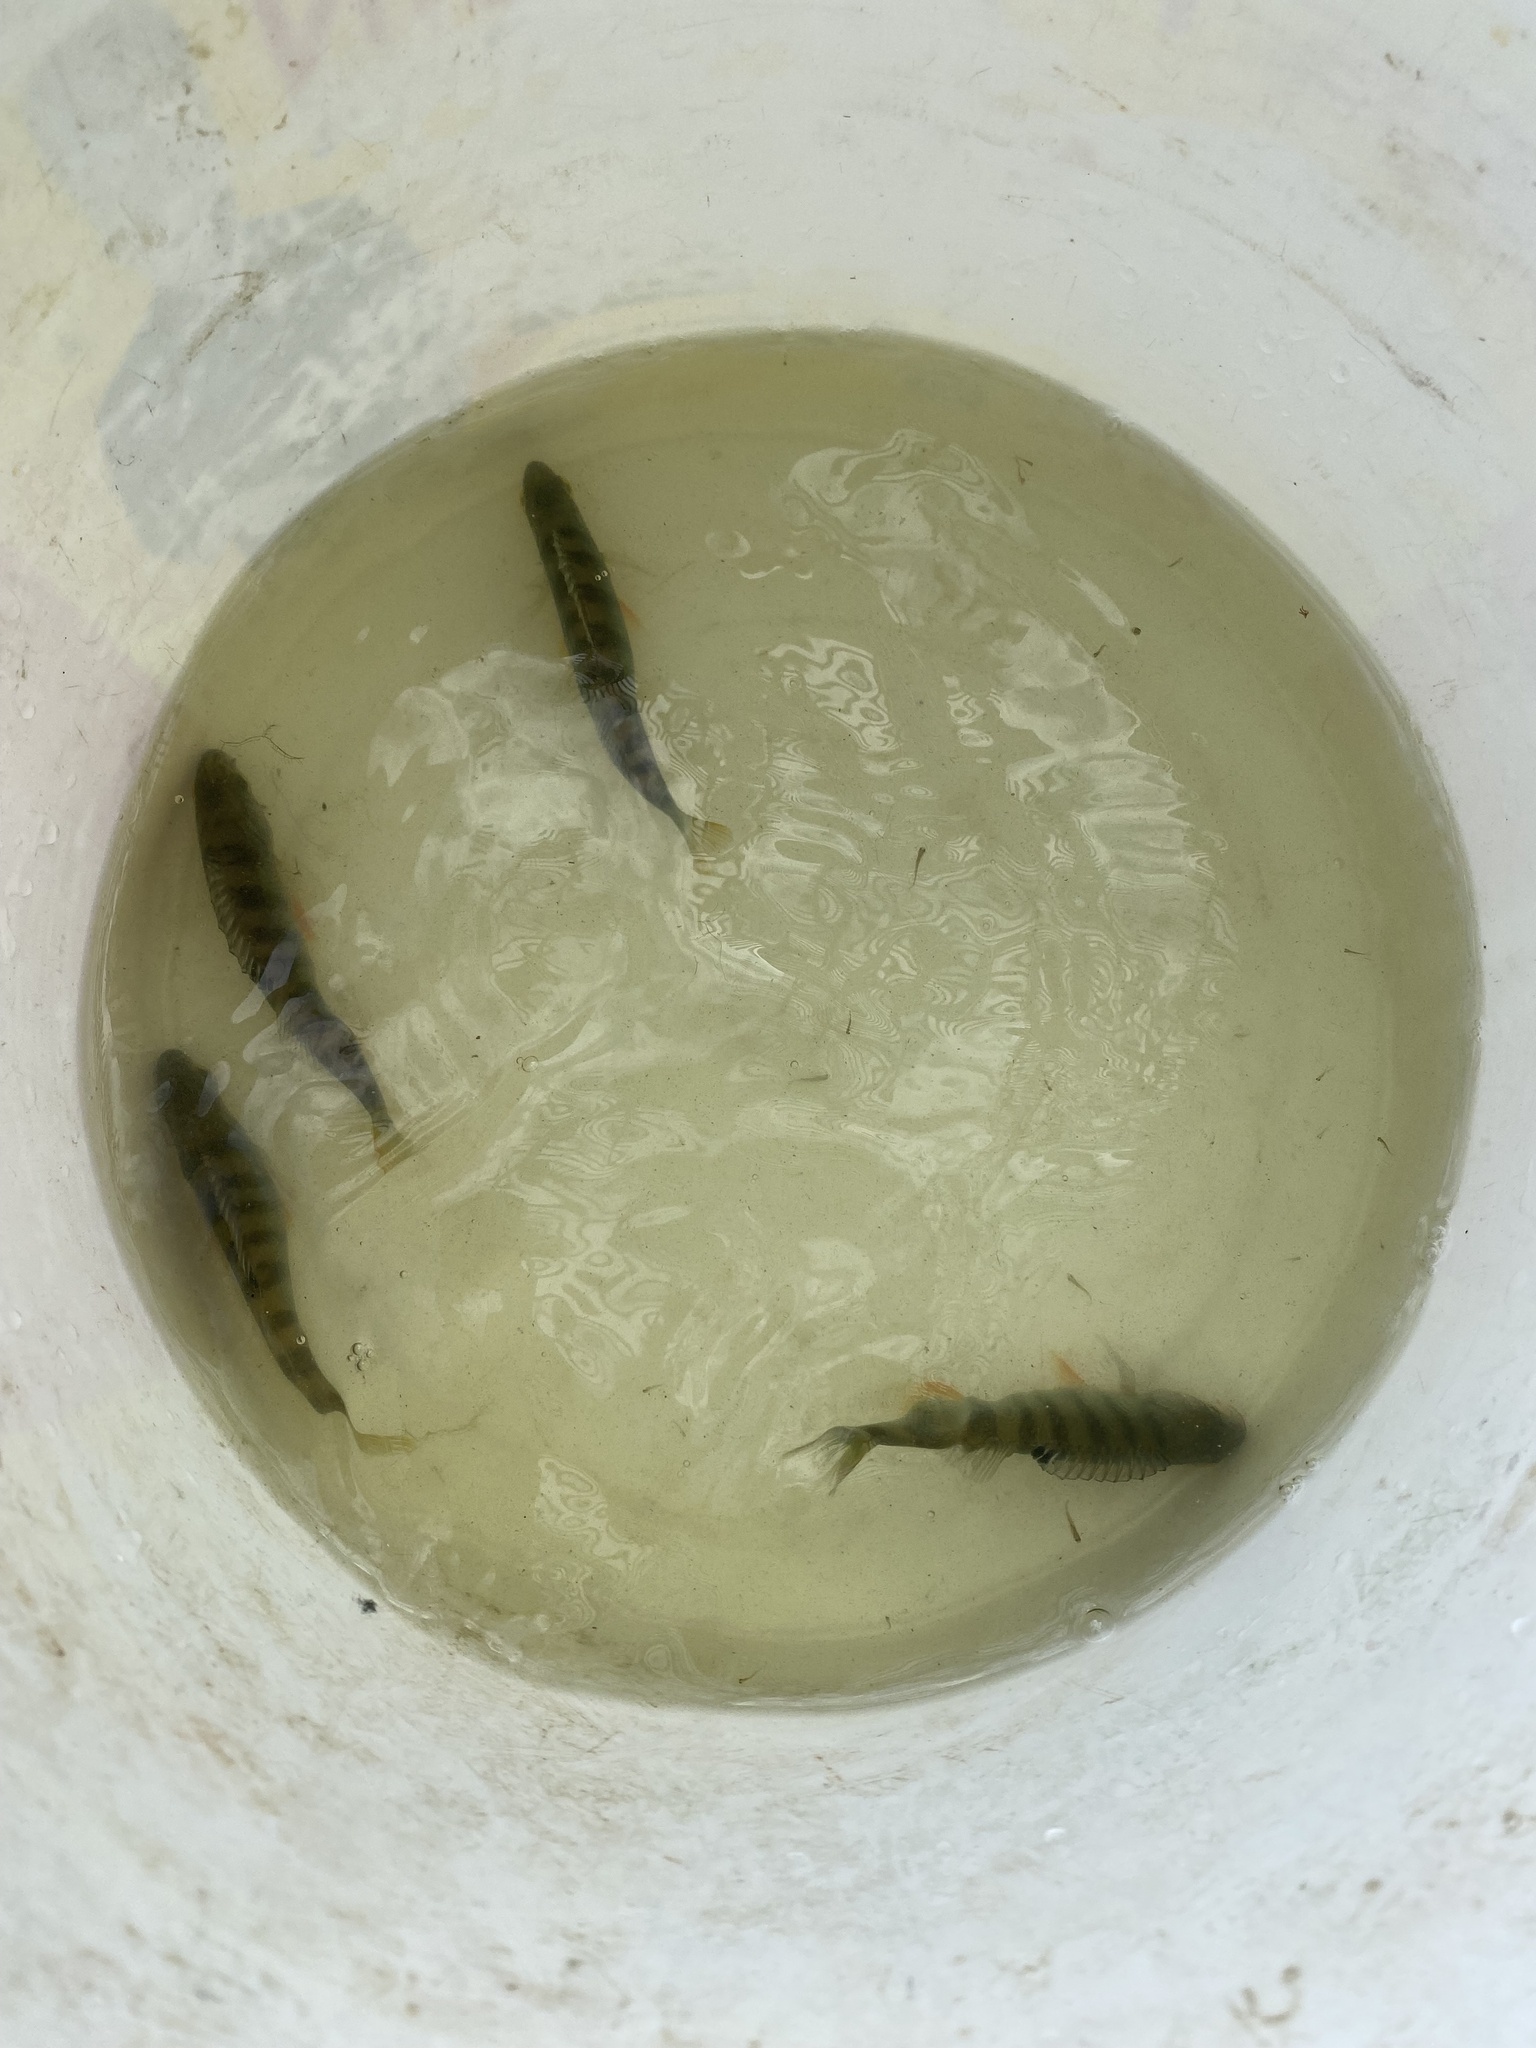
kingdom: Animalia
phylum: Chordata
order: Perciformes
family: Percidae
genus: Perca
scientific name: Perca fluviatilis
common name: Perch
